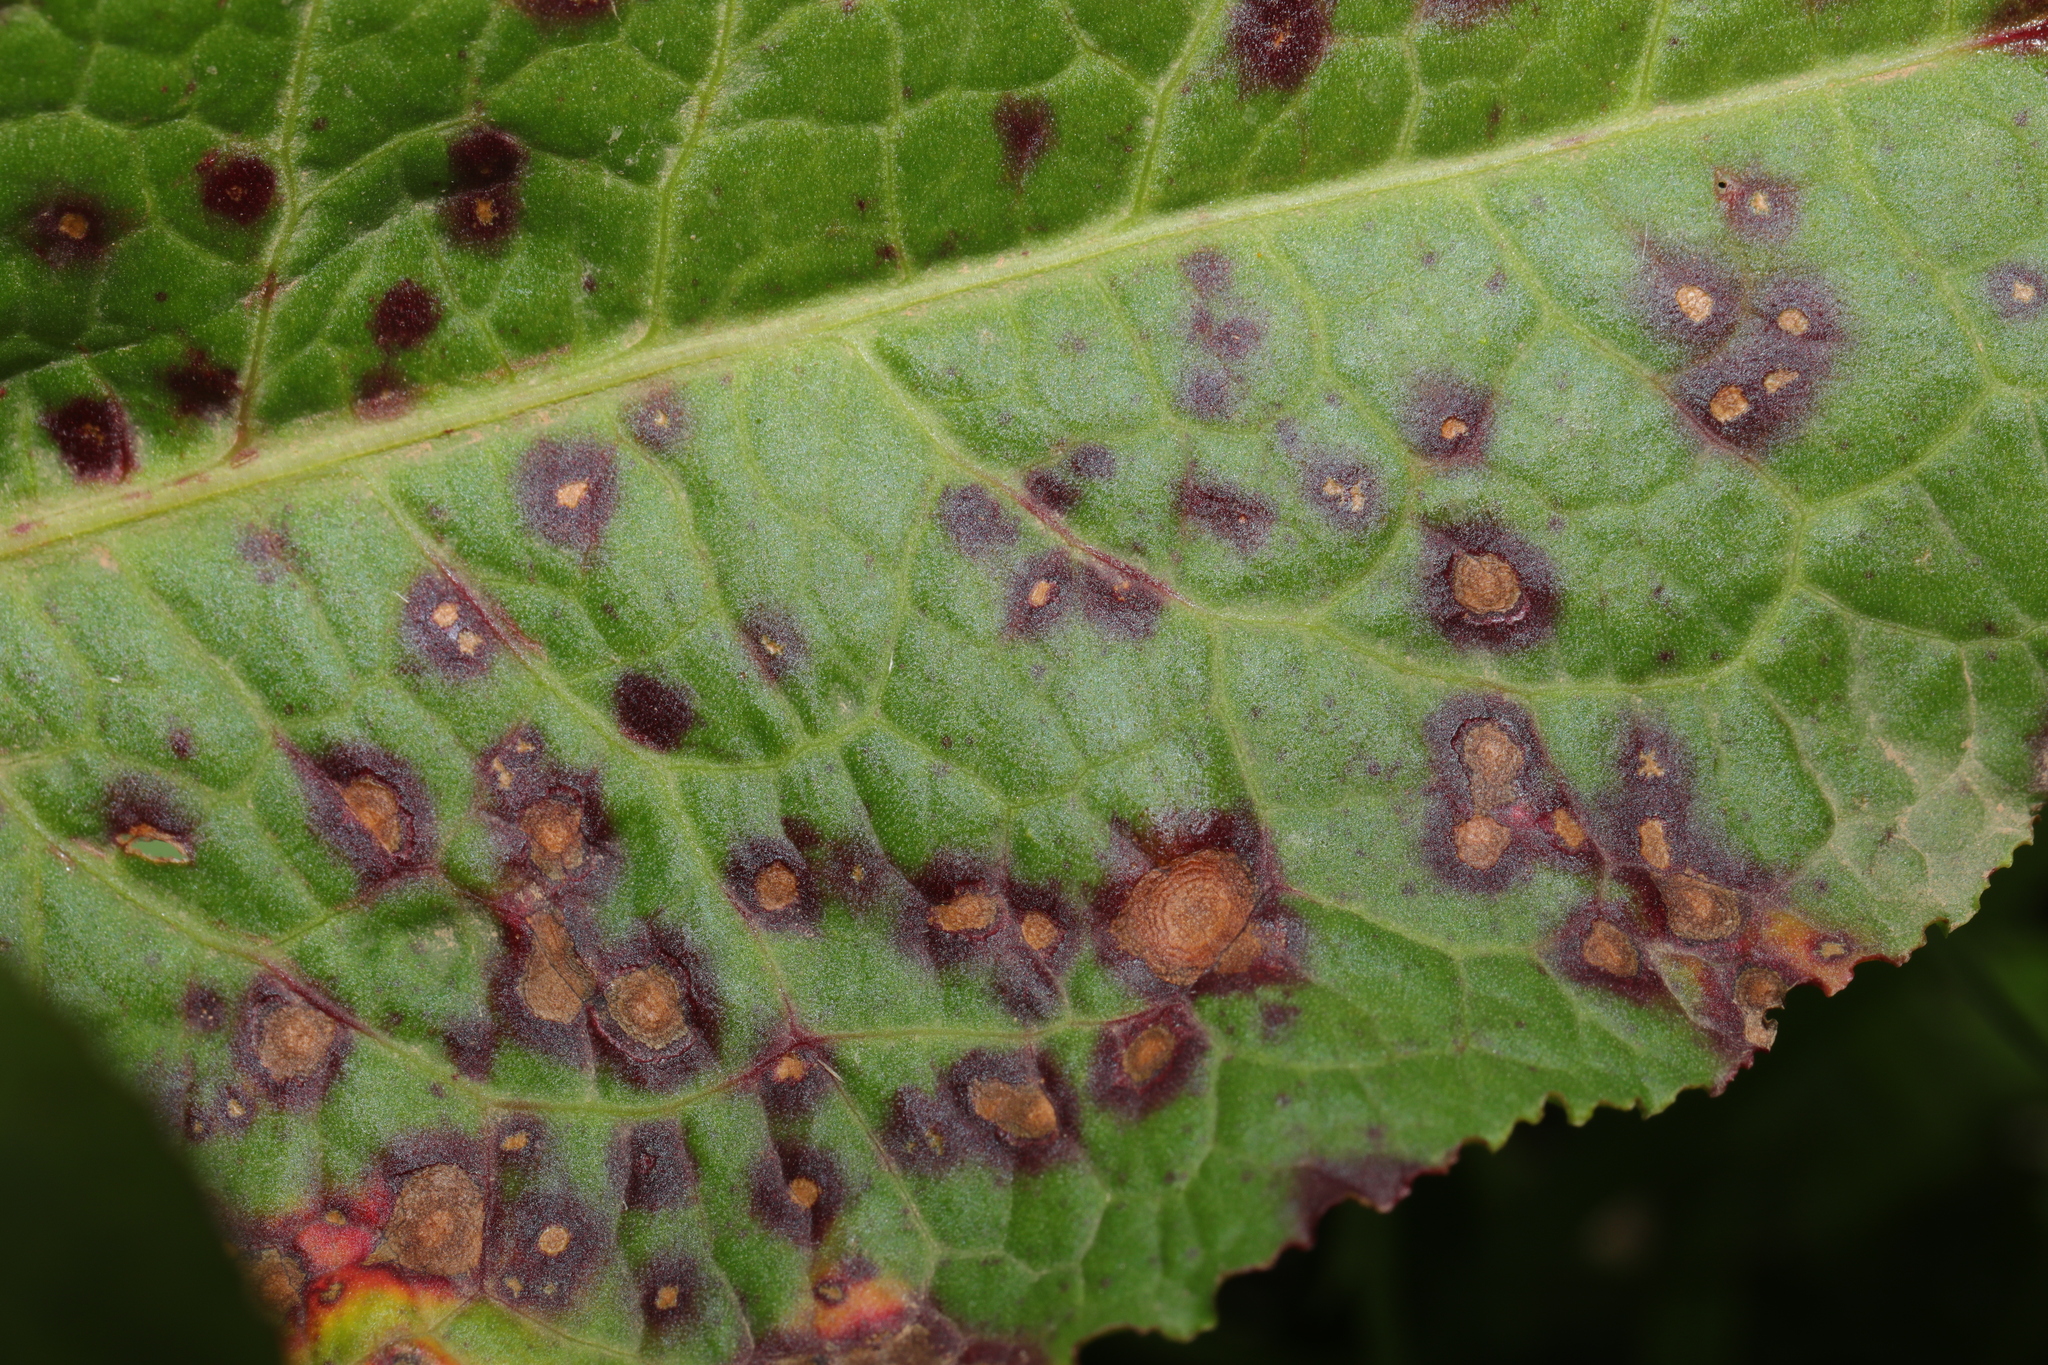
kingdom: Fungi
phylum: Ascomycota
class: Dothideomycetes
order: Mycosphaerellales
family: Mycosphaerellaceae
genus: Ramularia
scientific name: Ramularia rubella
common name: Red dock spot
